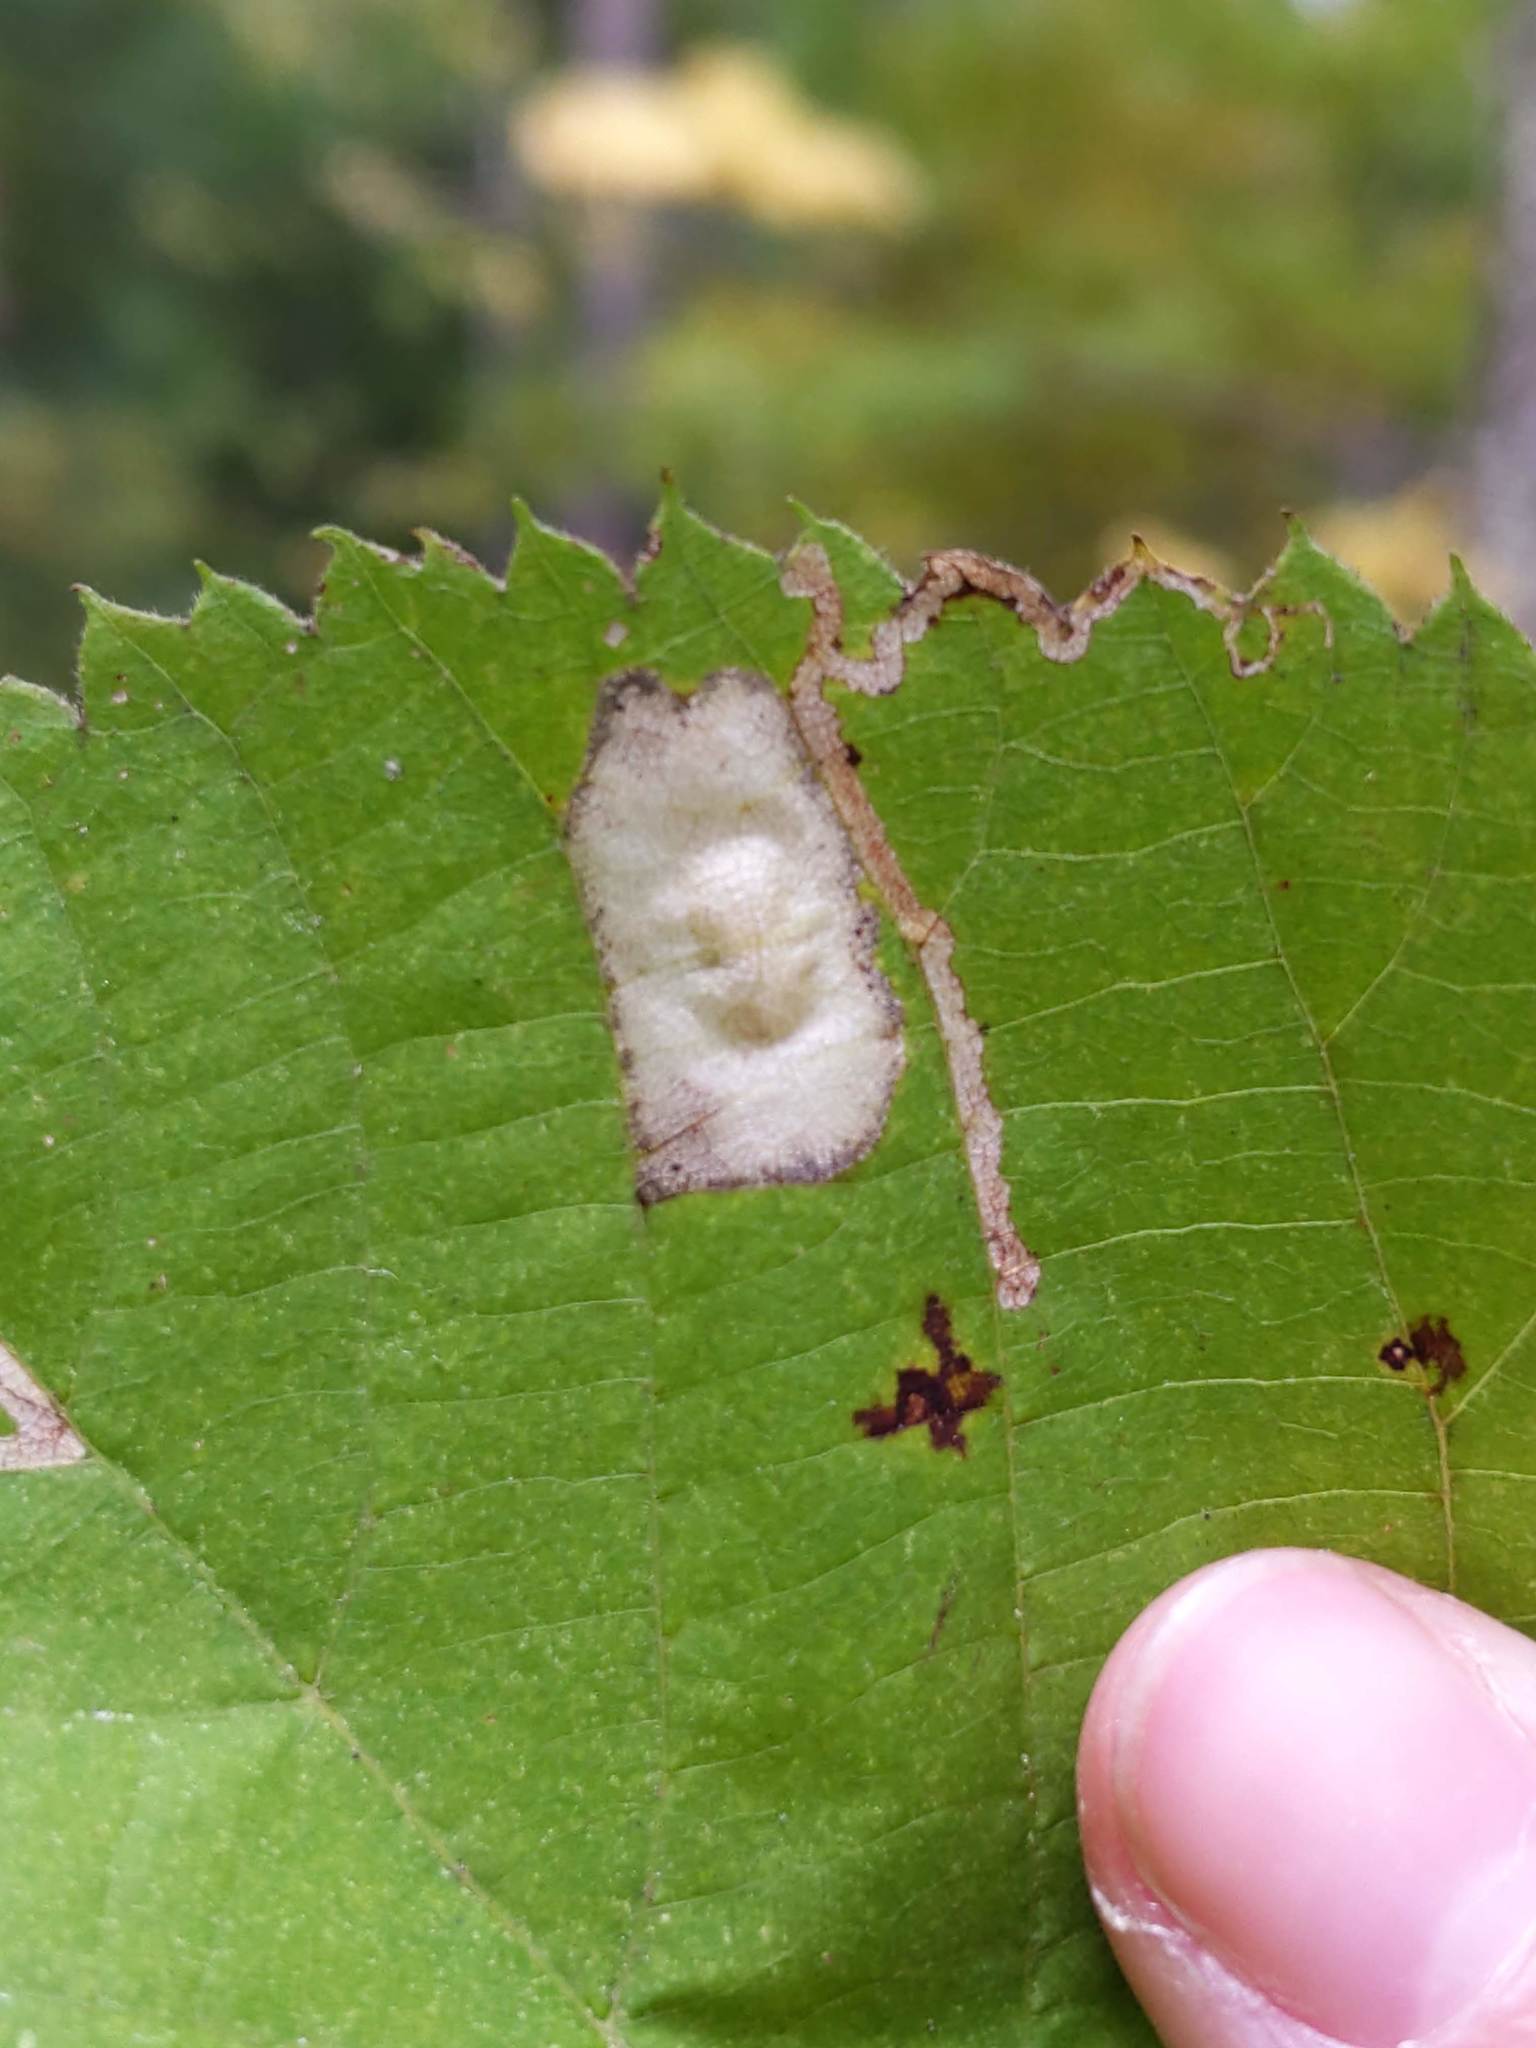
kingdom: Animalia
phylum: Arthropoda
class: Insecta
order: Lepidoptera
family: Gracillariidae
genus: Phyllonorycter
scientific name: Phyllonorycter lucetiella
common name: Basswood miner moth
